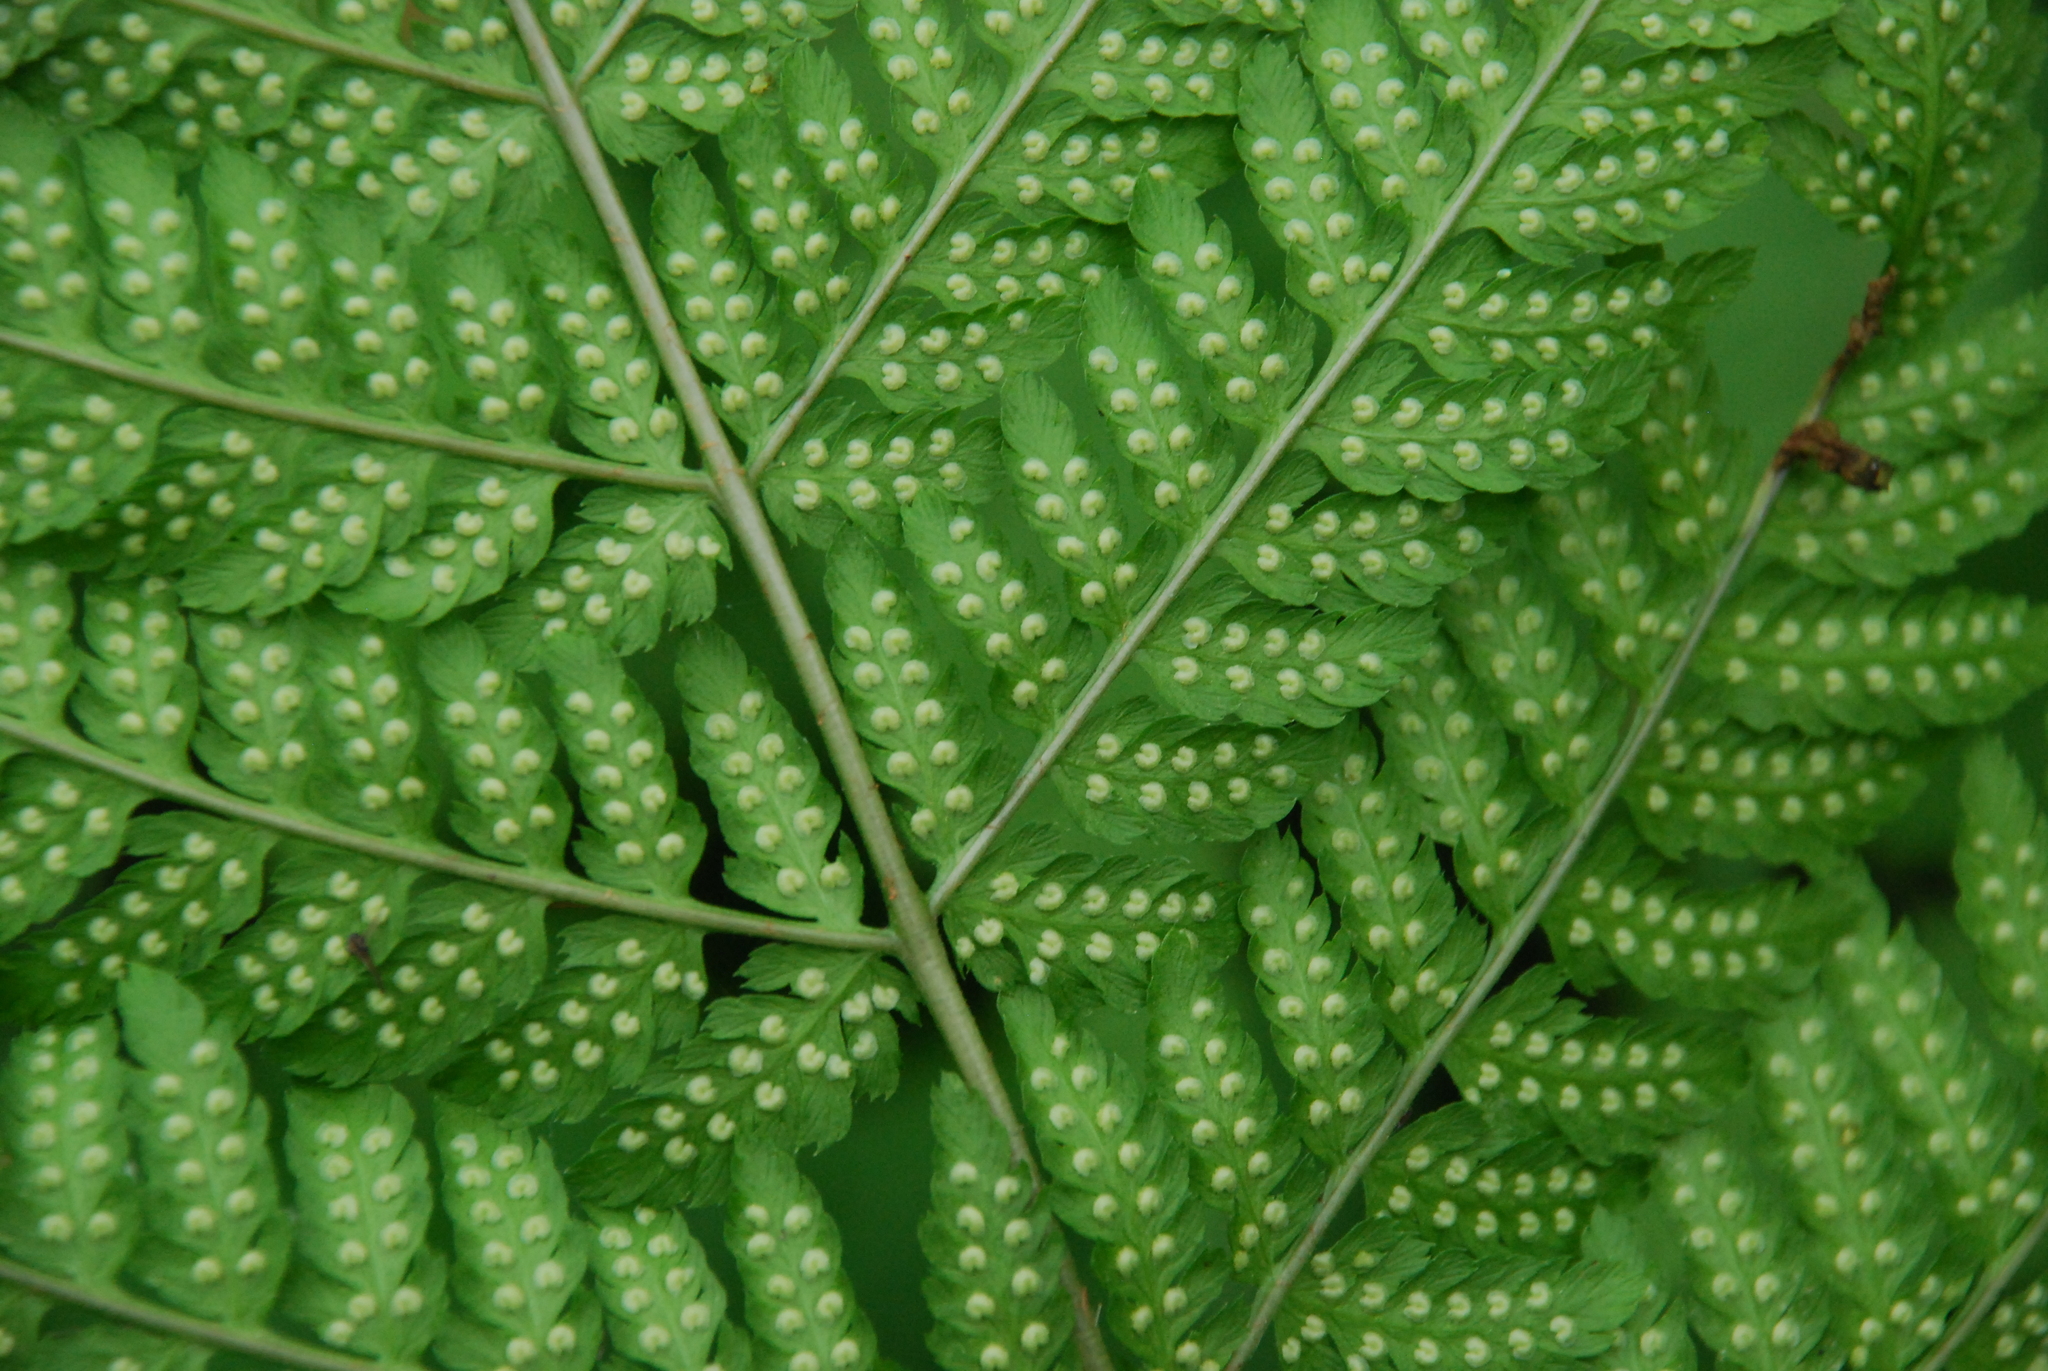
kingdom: Plantae
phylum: Tracheophyta
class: Polypodiopsida
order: Polypodiales
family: Dryopteridaceae
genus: Dryopteris
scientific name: Dryopteris carthusiana
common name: Narrow buckler-fern
